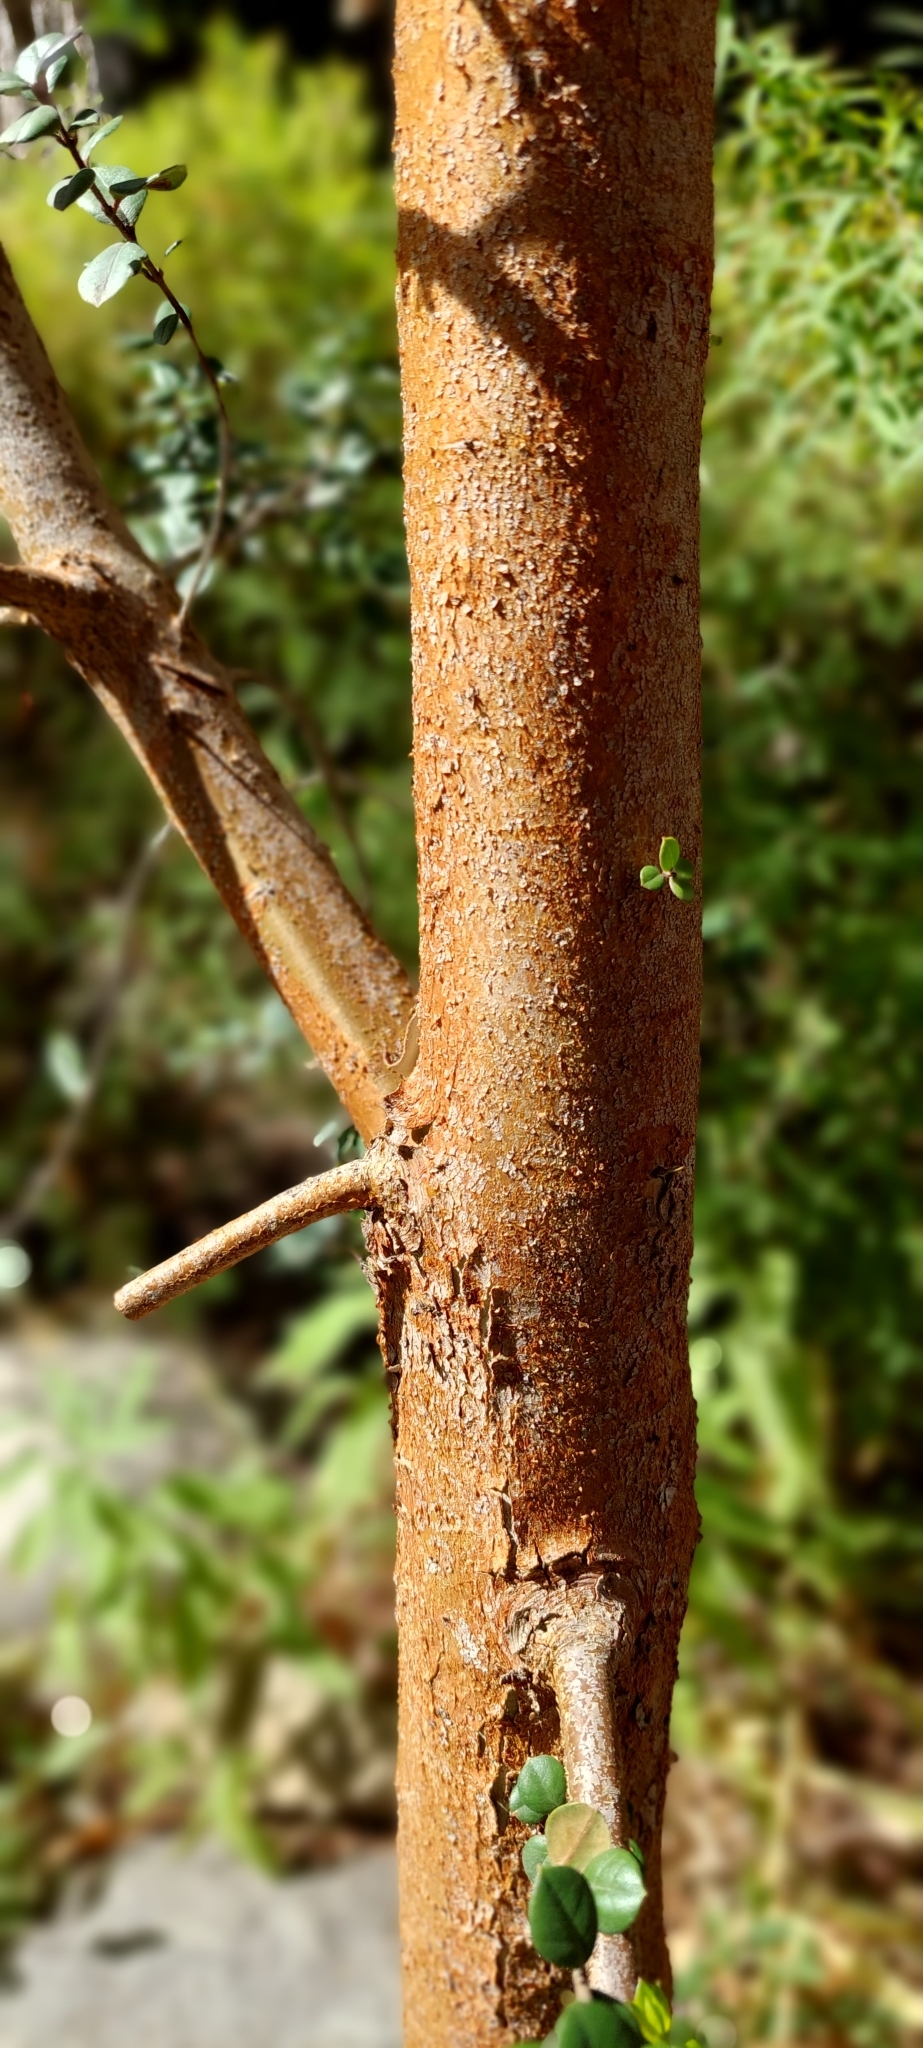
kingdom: Plantae
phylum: Tracheophyta
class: Magnoliopsida
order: Myrtales
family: Myrtaceae
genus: Luma
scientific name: Luma apiculata
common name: Chilean myrtle
